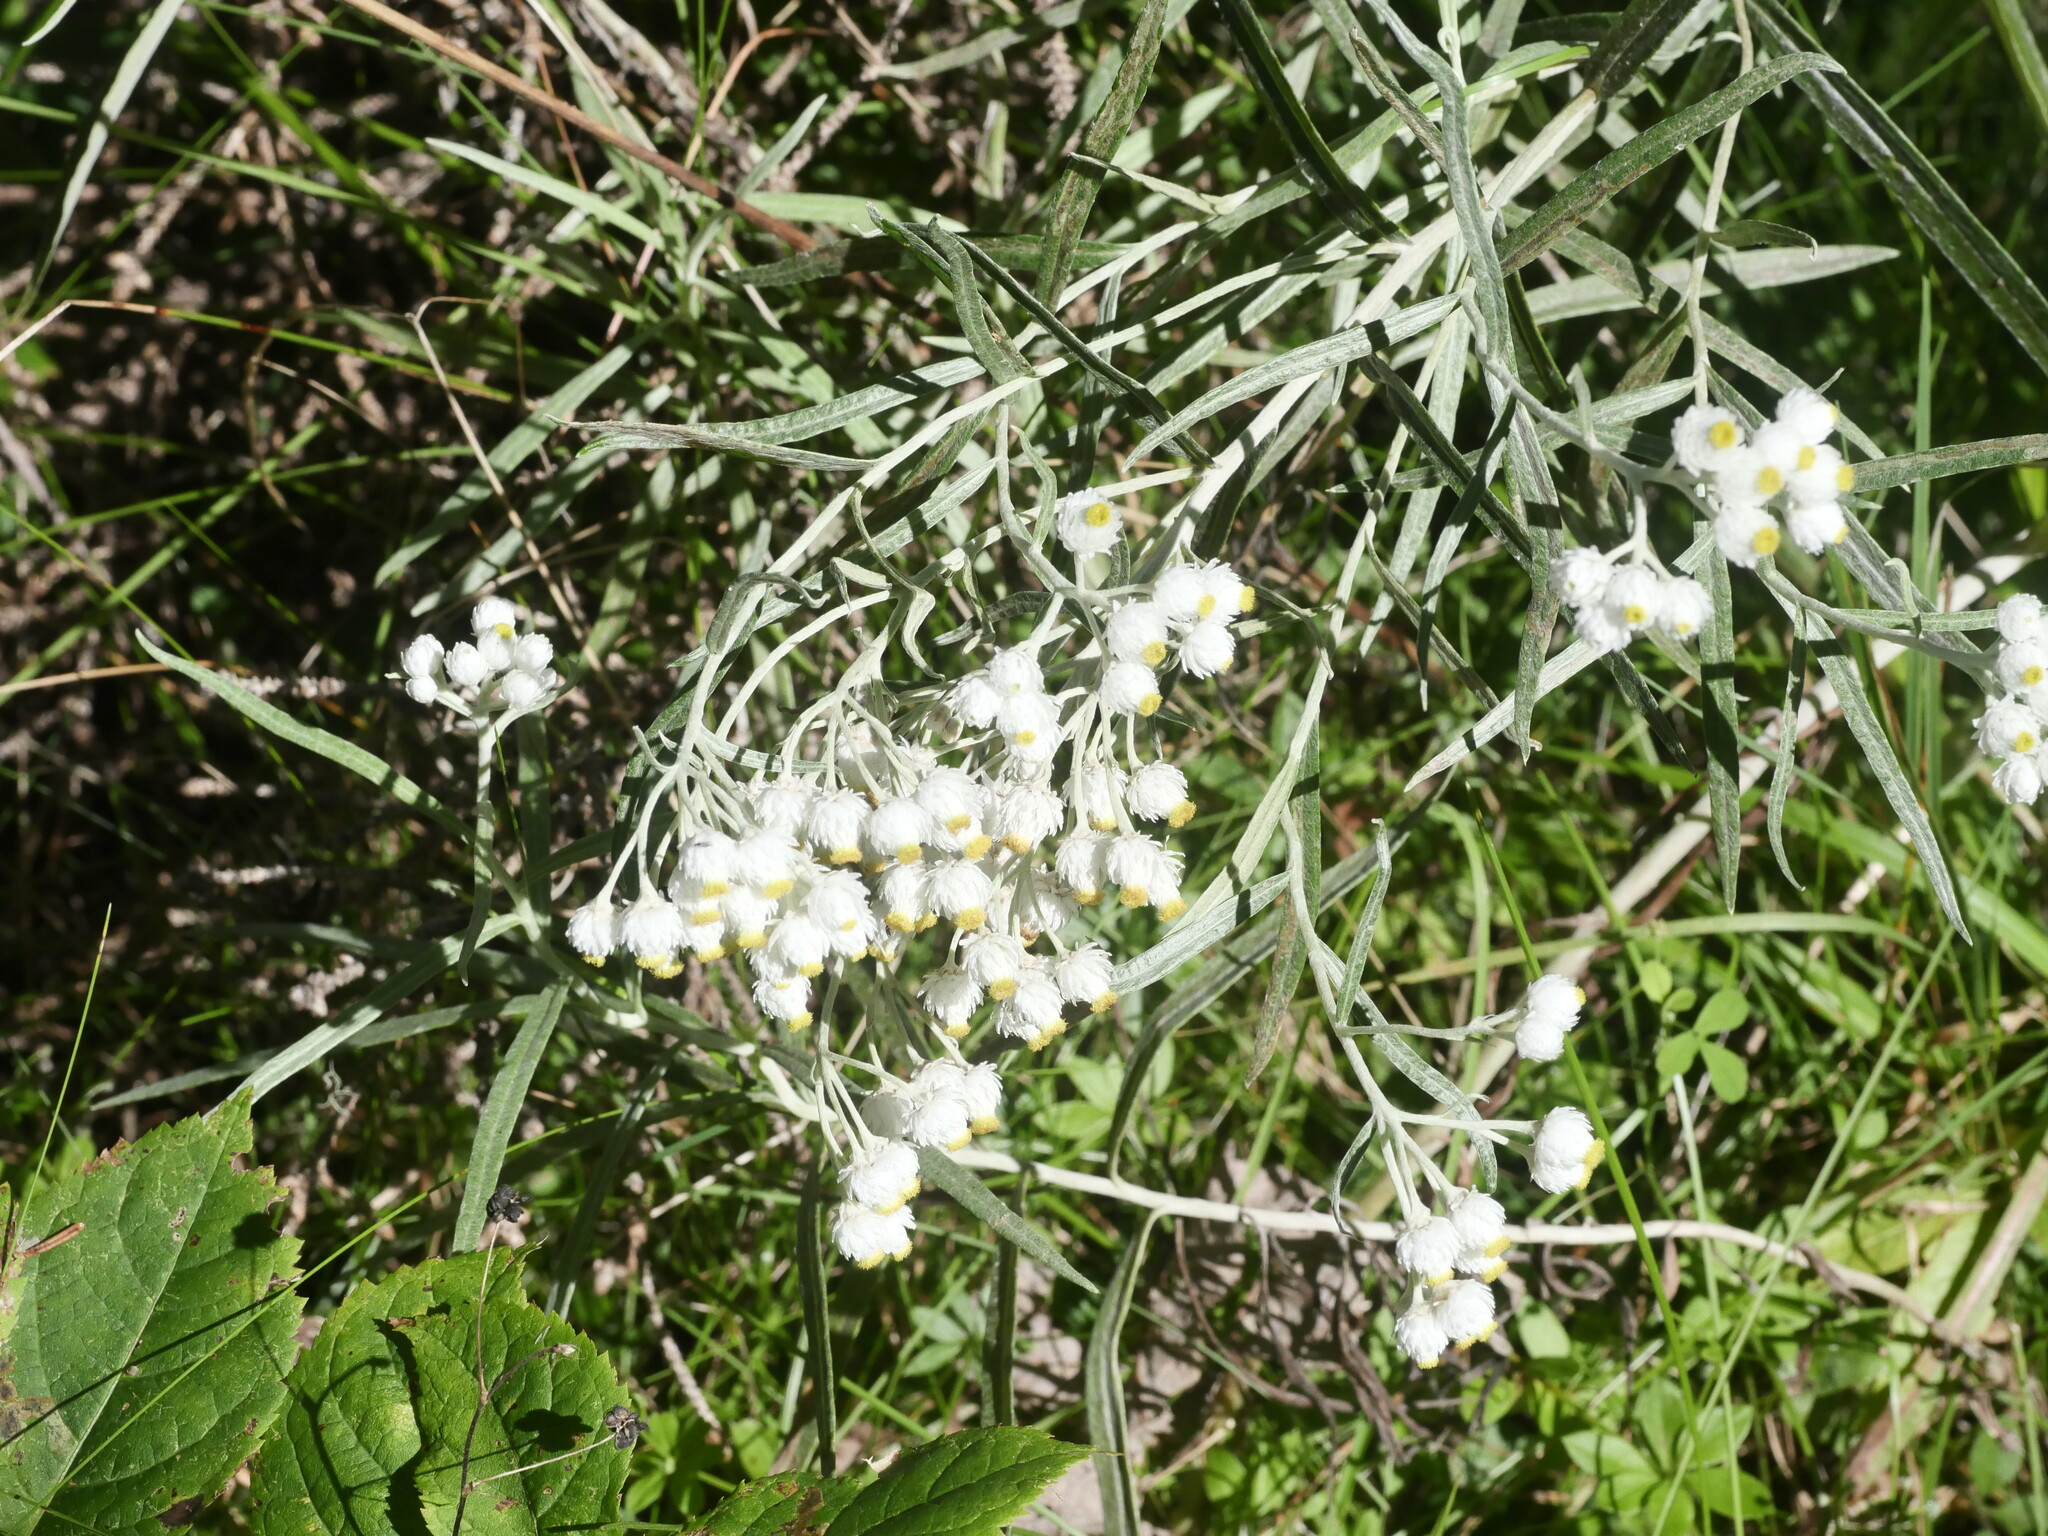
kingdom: Plantae
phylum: Tracheophyta
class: Magnoliopsida
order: Asterales
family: Asteraceae
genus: Anaphalis
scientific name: Anaphalis margaritacea
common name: Pearly everlasting
